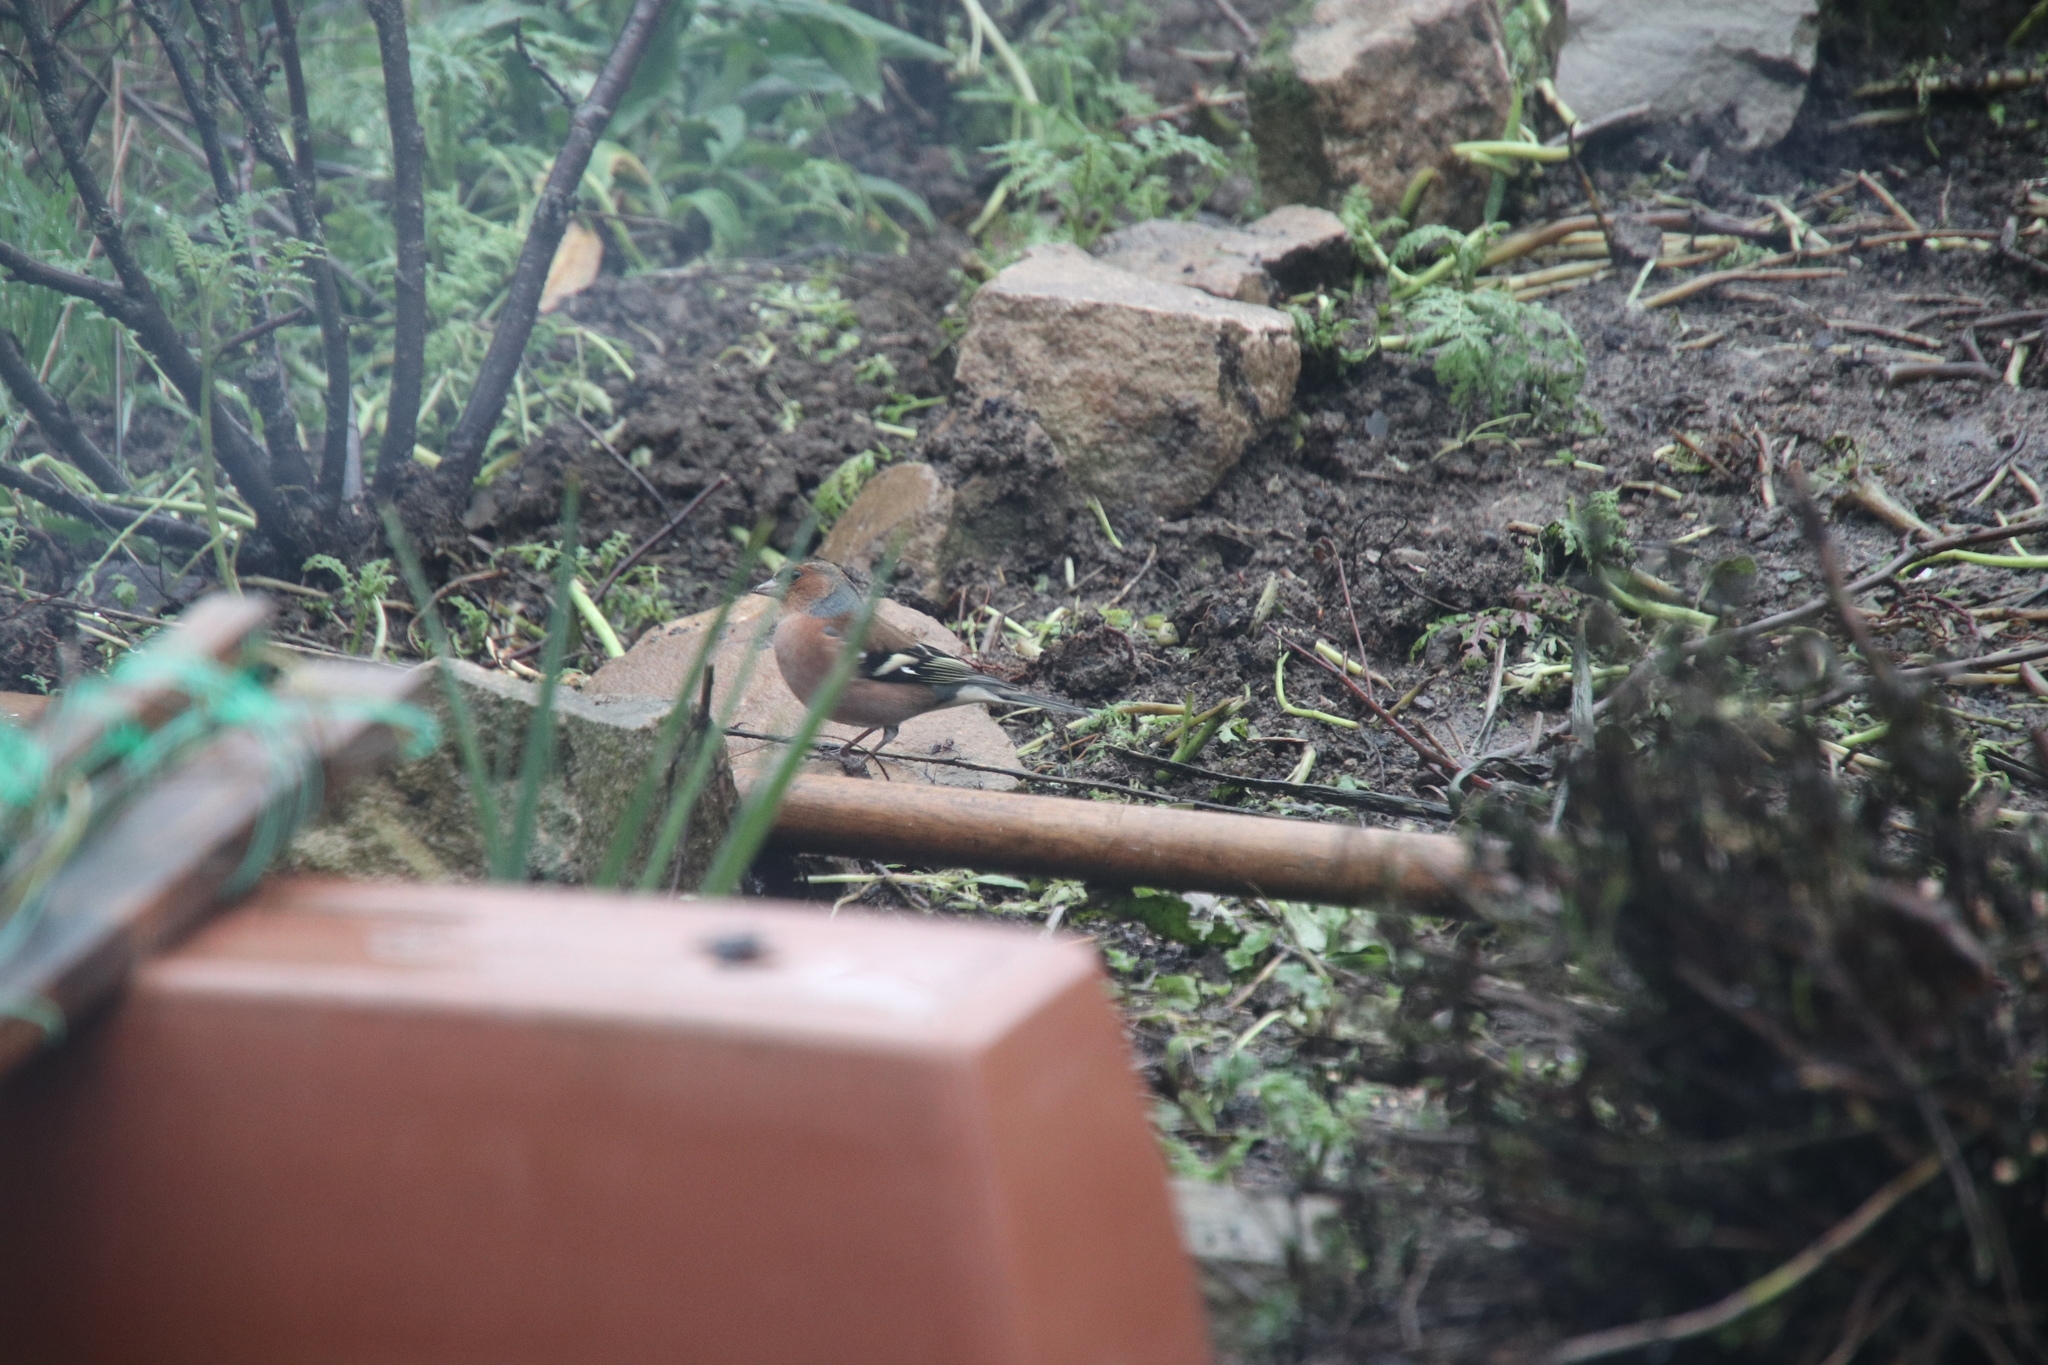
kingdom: Animalia
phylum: Chordata
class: Aves
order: Passeriformes
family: Fringillidae
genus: Fringilla
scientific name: Fringilla coelebs
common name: Common chaffinch
